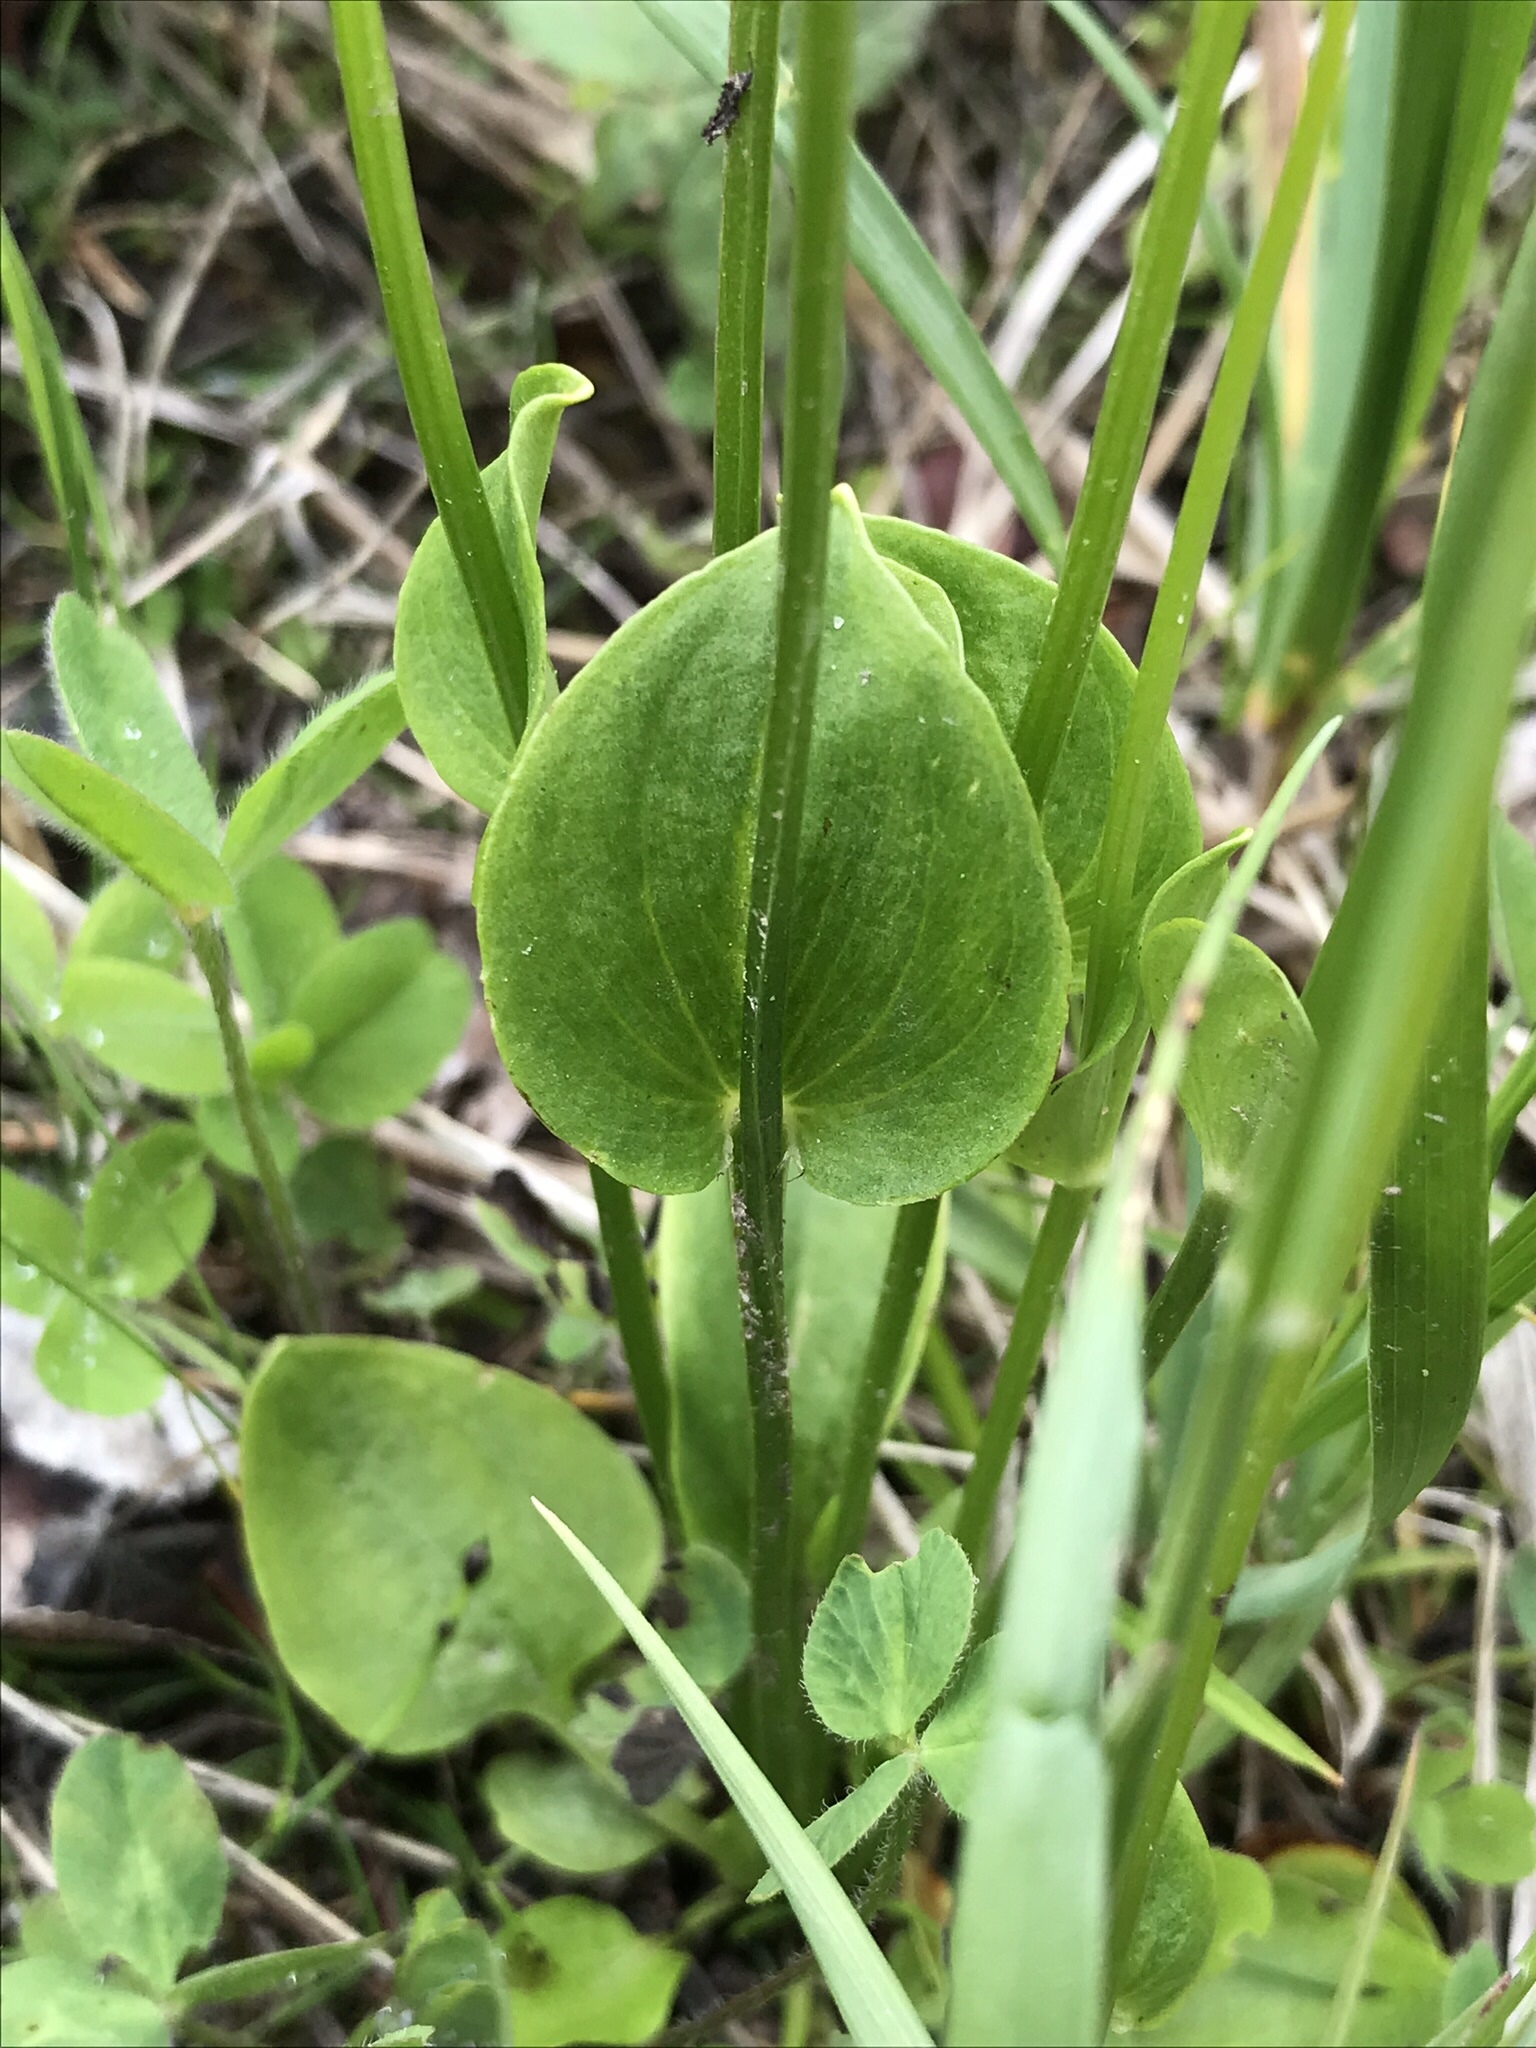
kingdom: Plantae
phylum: Tracheophyta
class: Magnoliopsida
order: Celastrales
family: Parnassiaceae
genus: Parnassia
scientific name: Parnassia palustris
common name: Grass-of-parnassus
